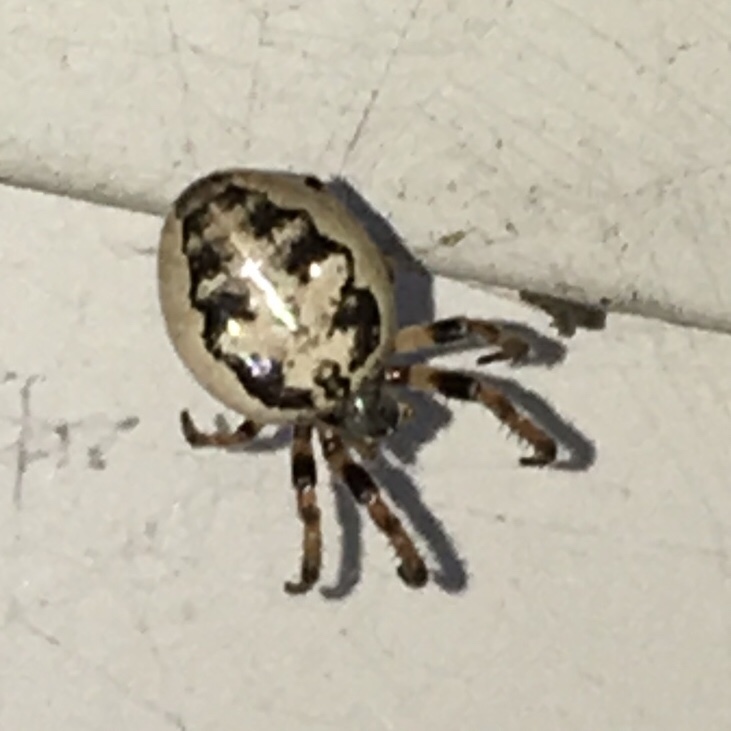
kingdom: Animalia
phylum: Arthropoda
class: Arachnida
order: Araneae
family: Araneidae
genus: Larinioides
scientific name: Larinioides cornutus
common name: Furrow orbweaver
